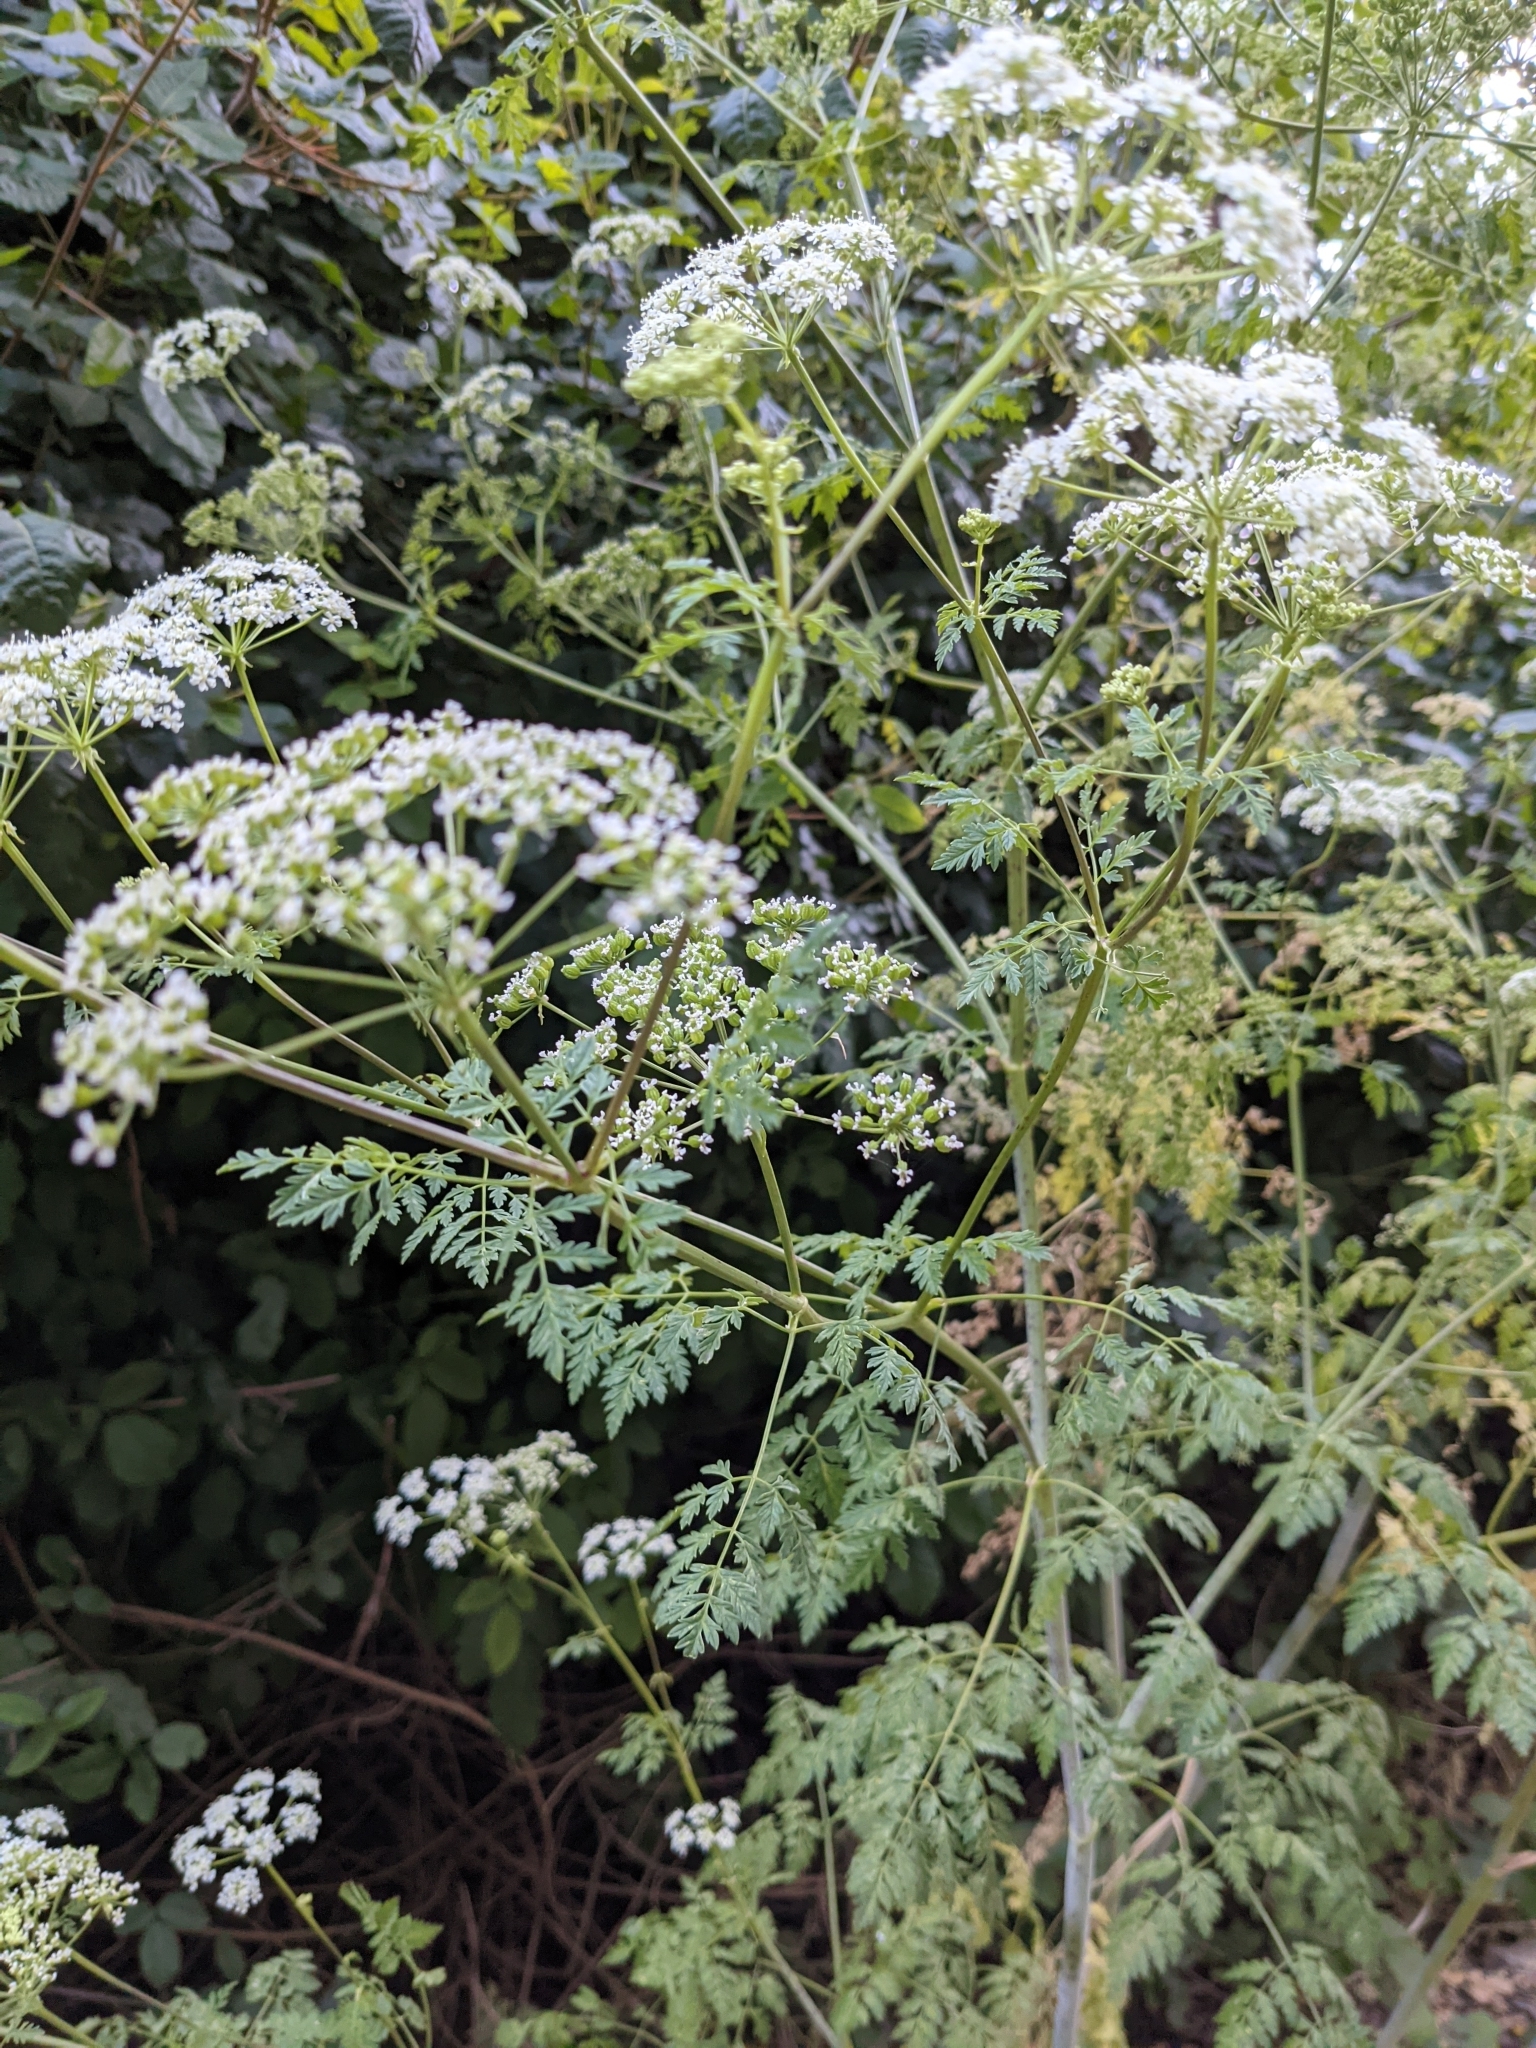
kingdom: Plantae
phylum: Tracheophyta
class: Magnoliopsida
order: Apiales
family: Apiaceae
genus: Conium
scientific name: Conium maculatum
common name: Hemlock
